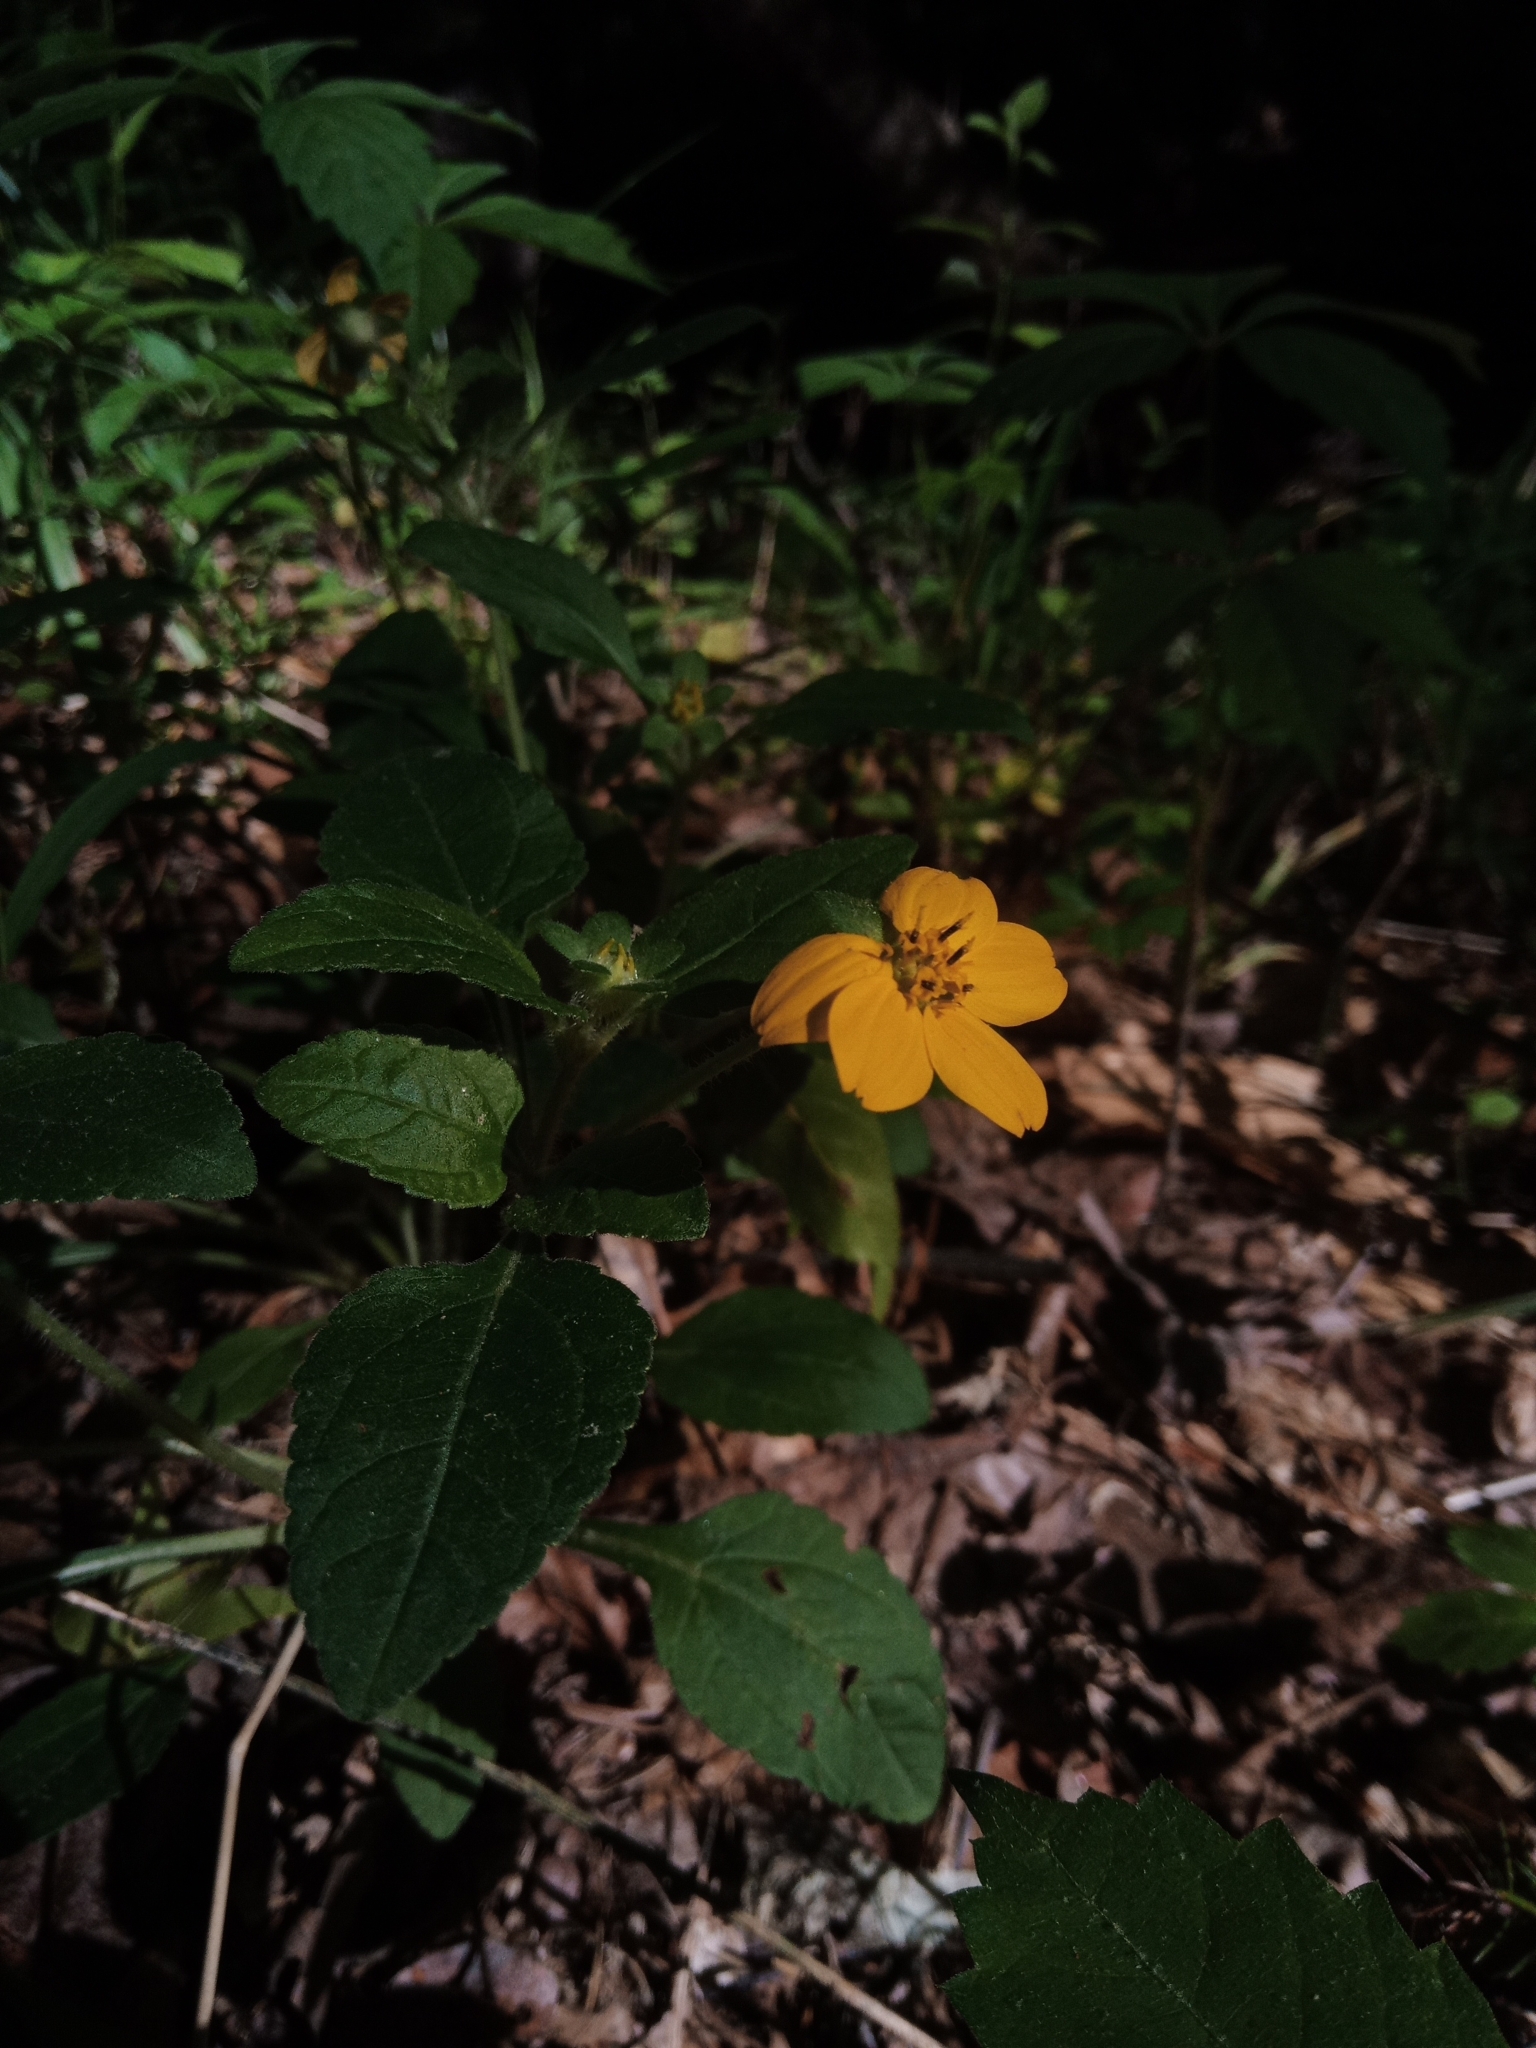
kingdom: Plantae
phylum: Tracheophyta
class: Magnoliopsida
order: Asterales
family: Asteraceae
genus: Chrysogonum
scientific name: Chrysogonum virginianum
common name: Golden-knee
